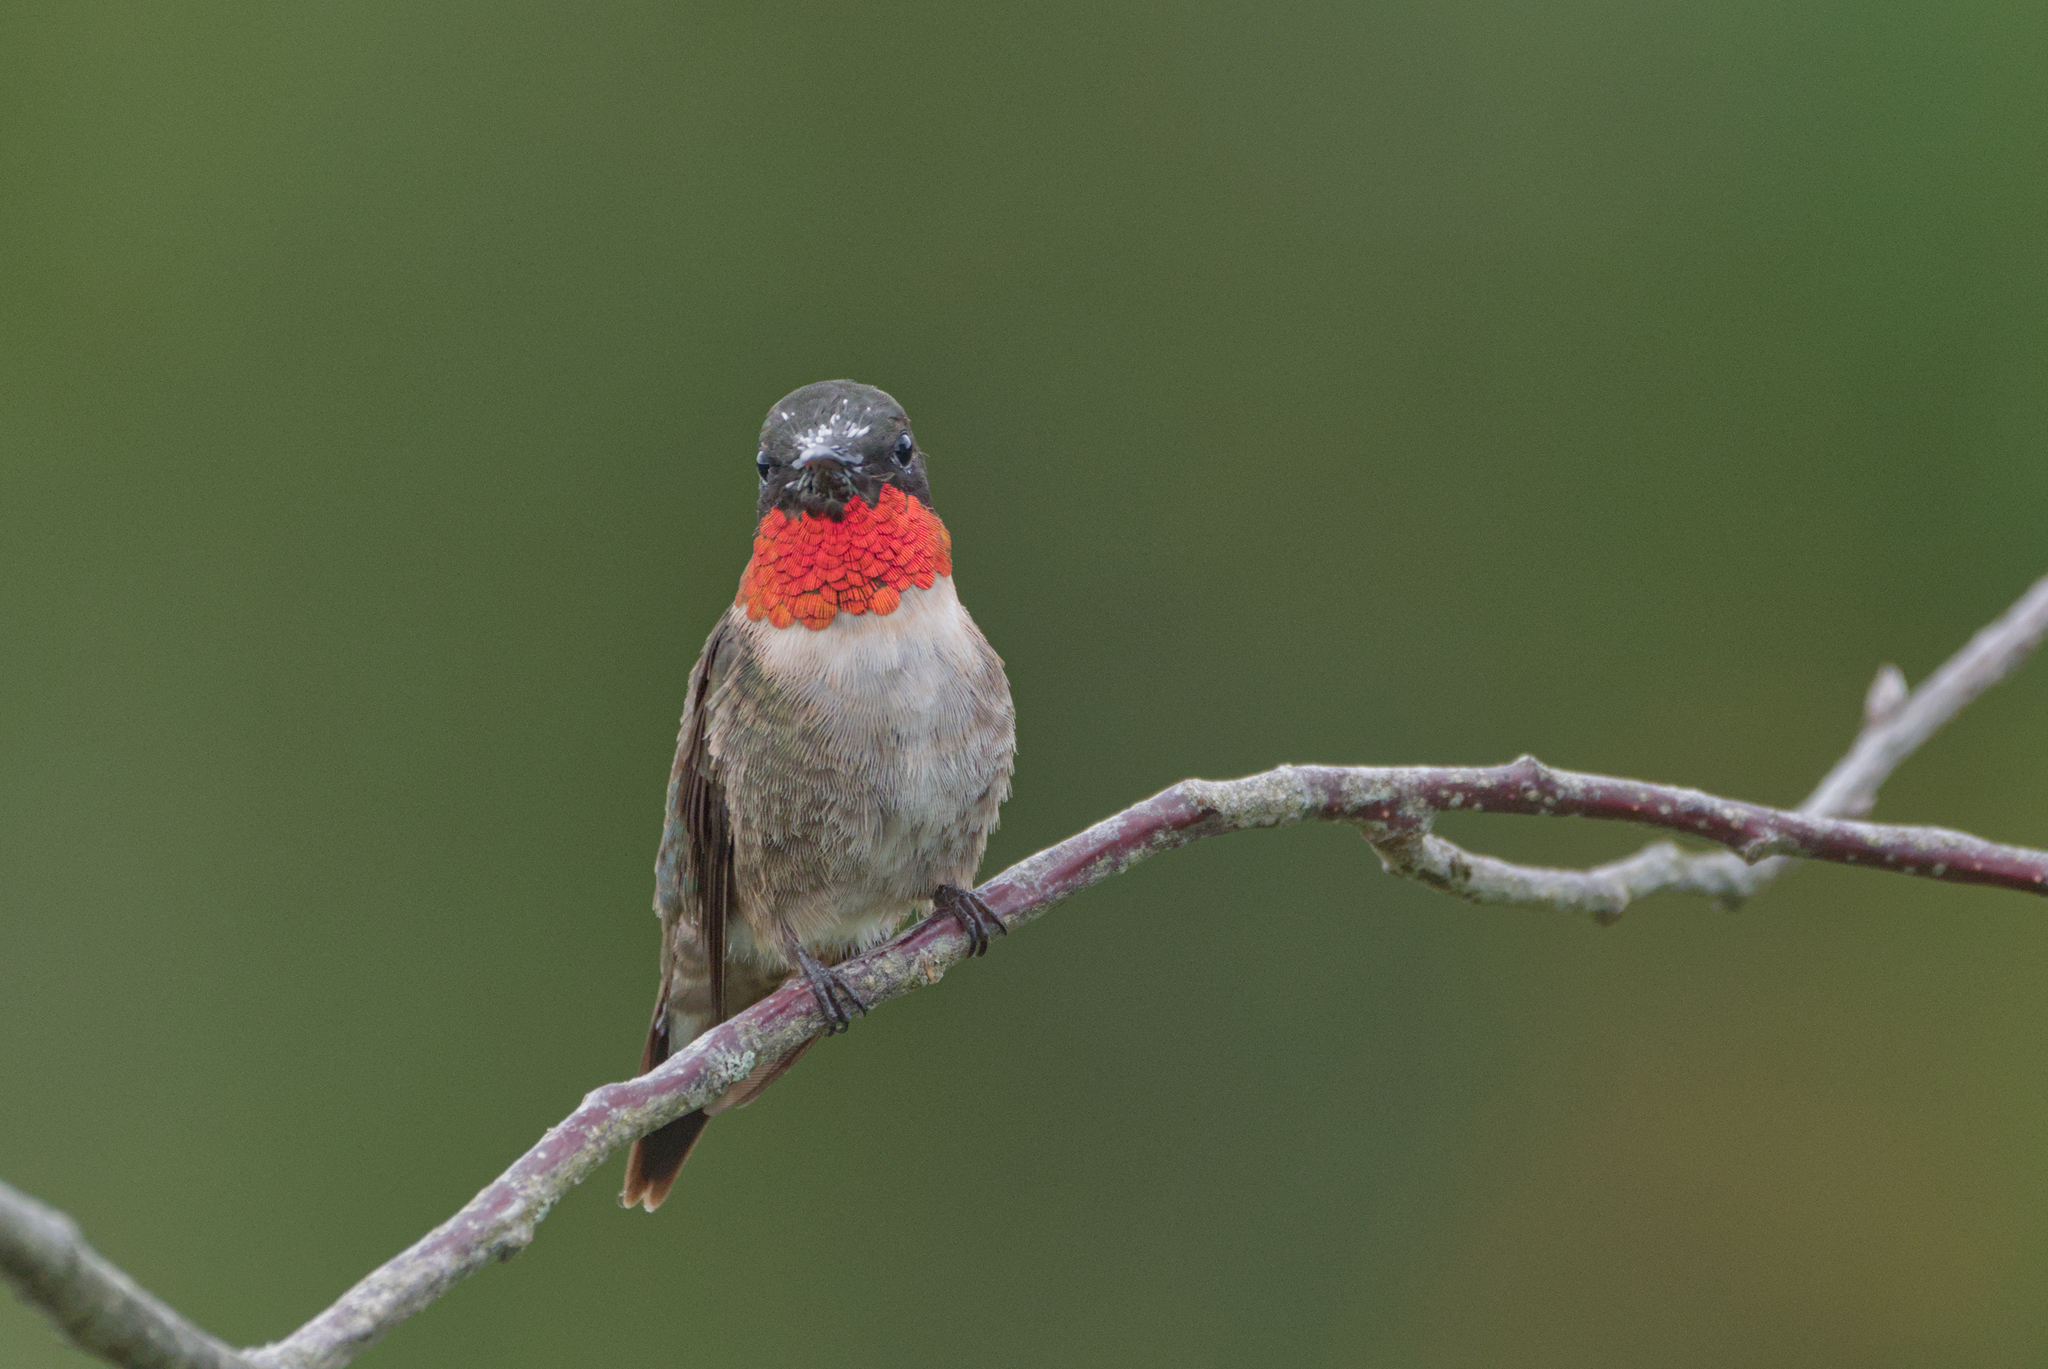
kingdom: Animalia
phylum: Chordata
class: Aves
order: Apodiformes
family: Trochilidae
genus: Archilochus
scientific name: Archilochus colubris
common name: Ruby-throated hummingbird
